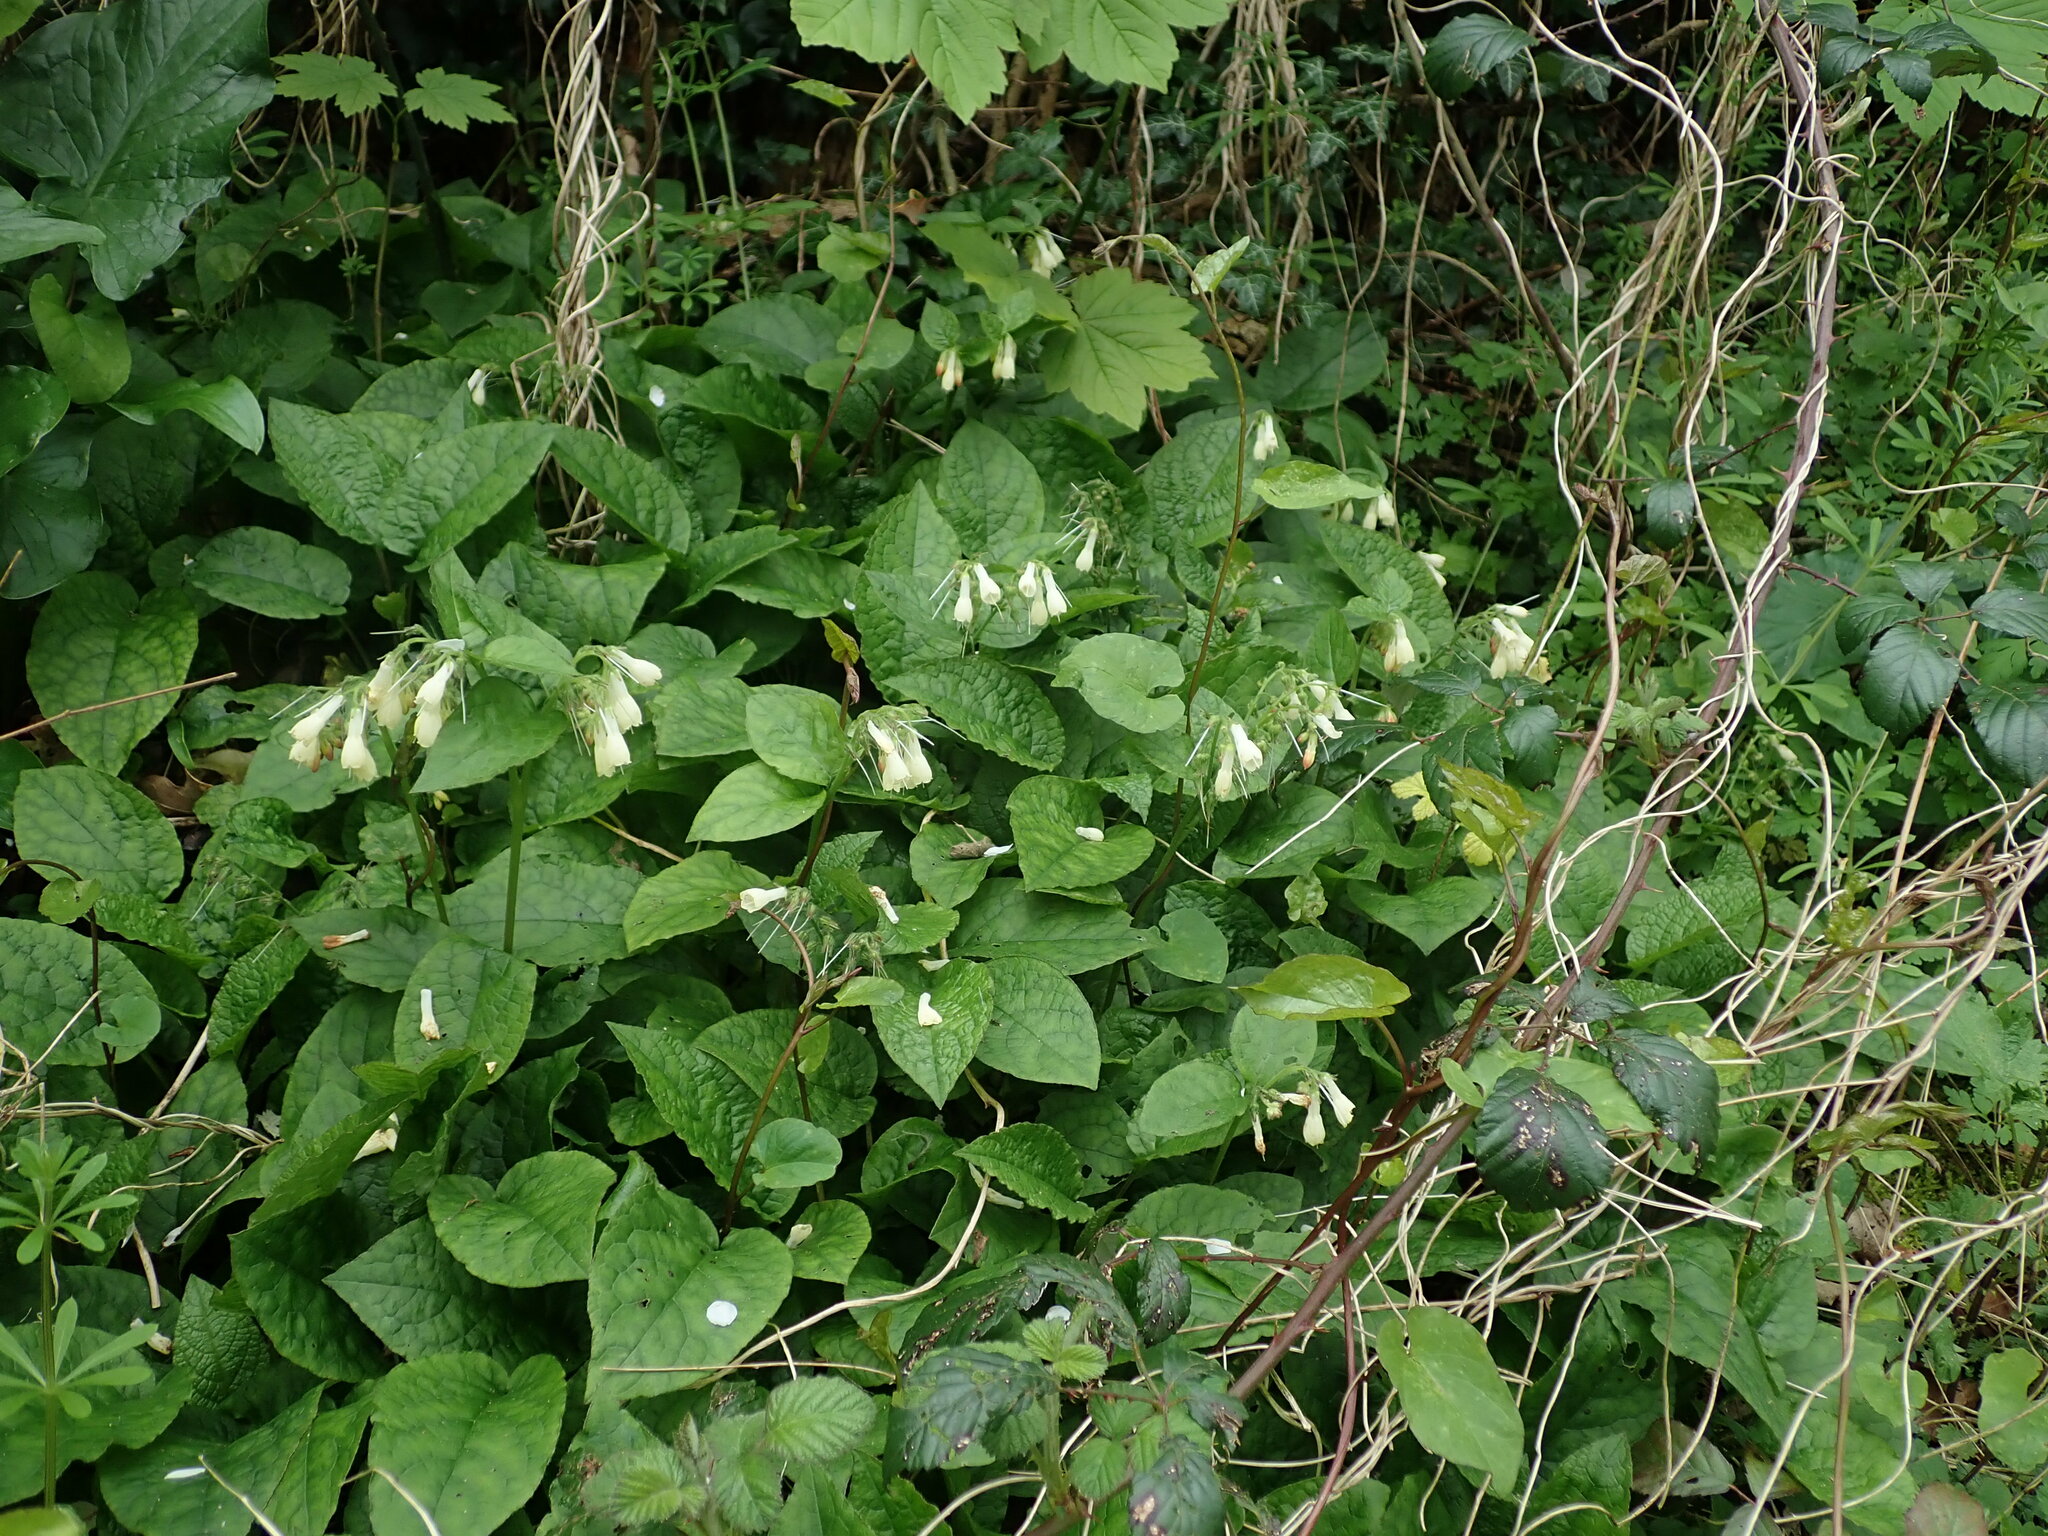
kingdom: Plantae
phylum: Tracheophyta
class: Magnoliopsida
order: Boraginales
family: Boraginaceae
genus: Symphytum
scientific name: Symphytum grandiflorum
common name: Creeping comfrey
